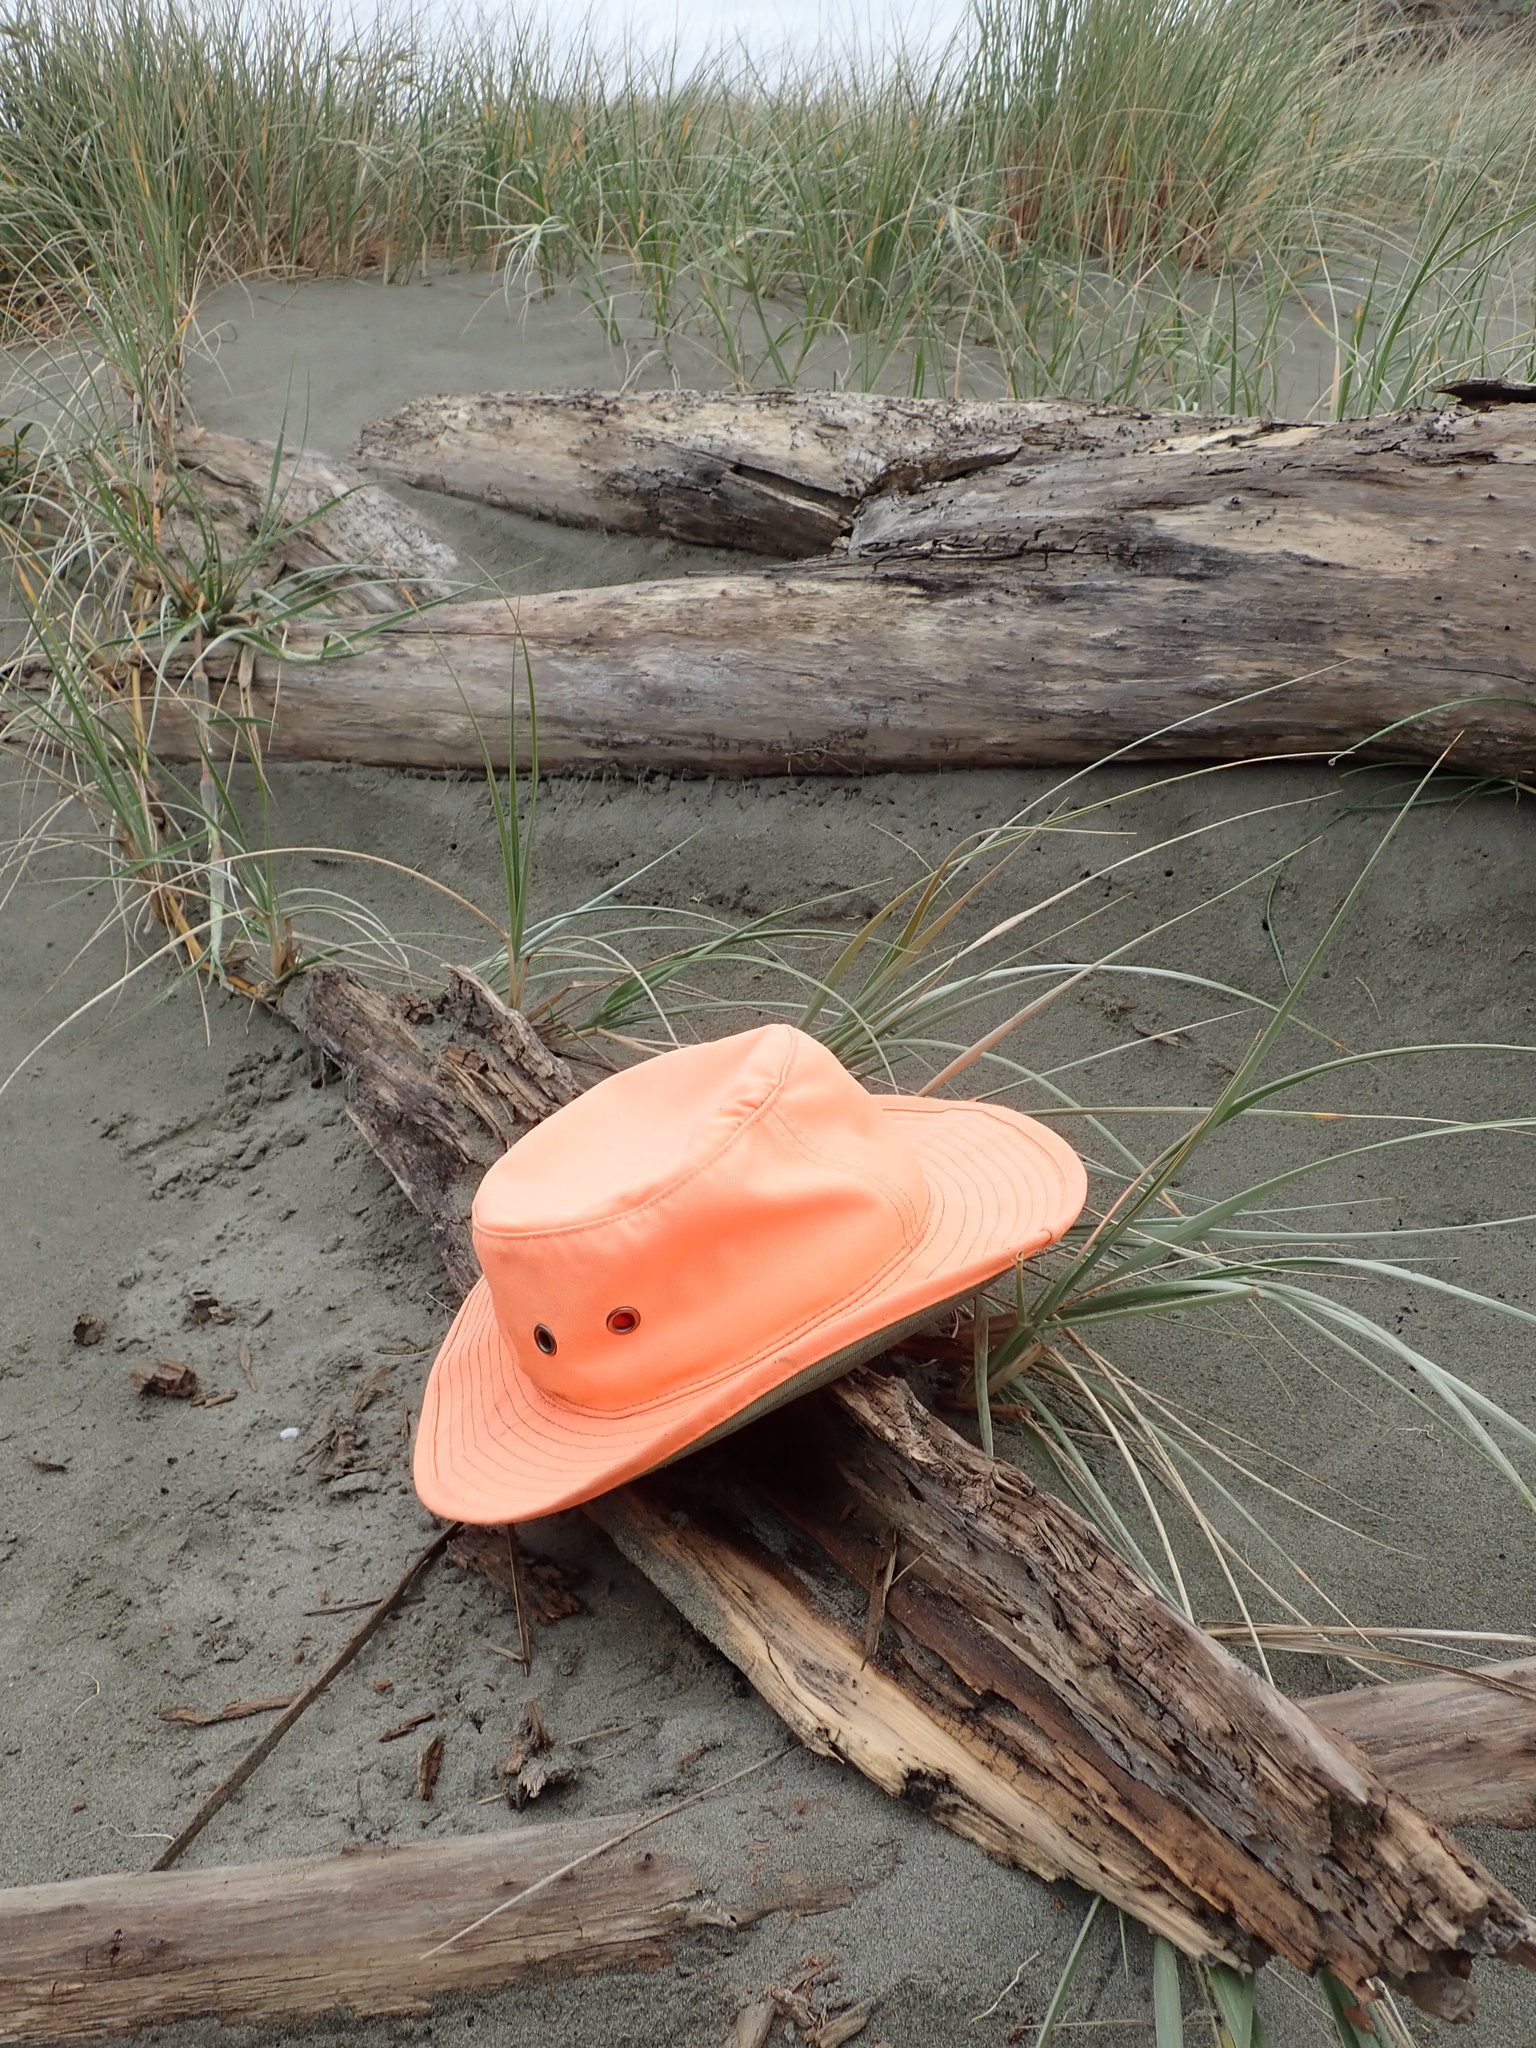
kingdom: Animalia
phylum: Arthropoda
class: Insecta
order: Coleoptera
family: Curculionidae
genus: Eutornus
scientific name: Eutornus littoralis
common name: Driftwood weevil
